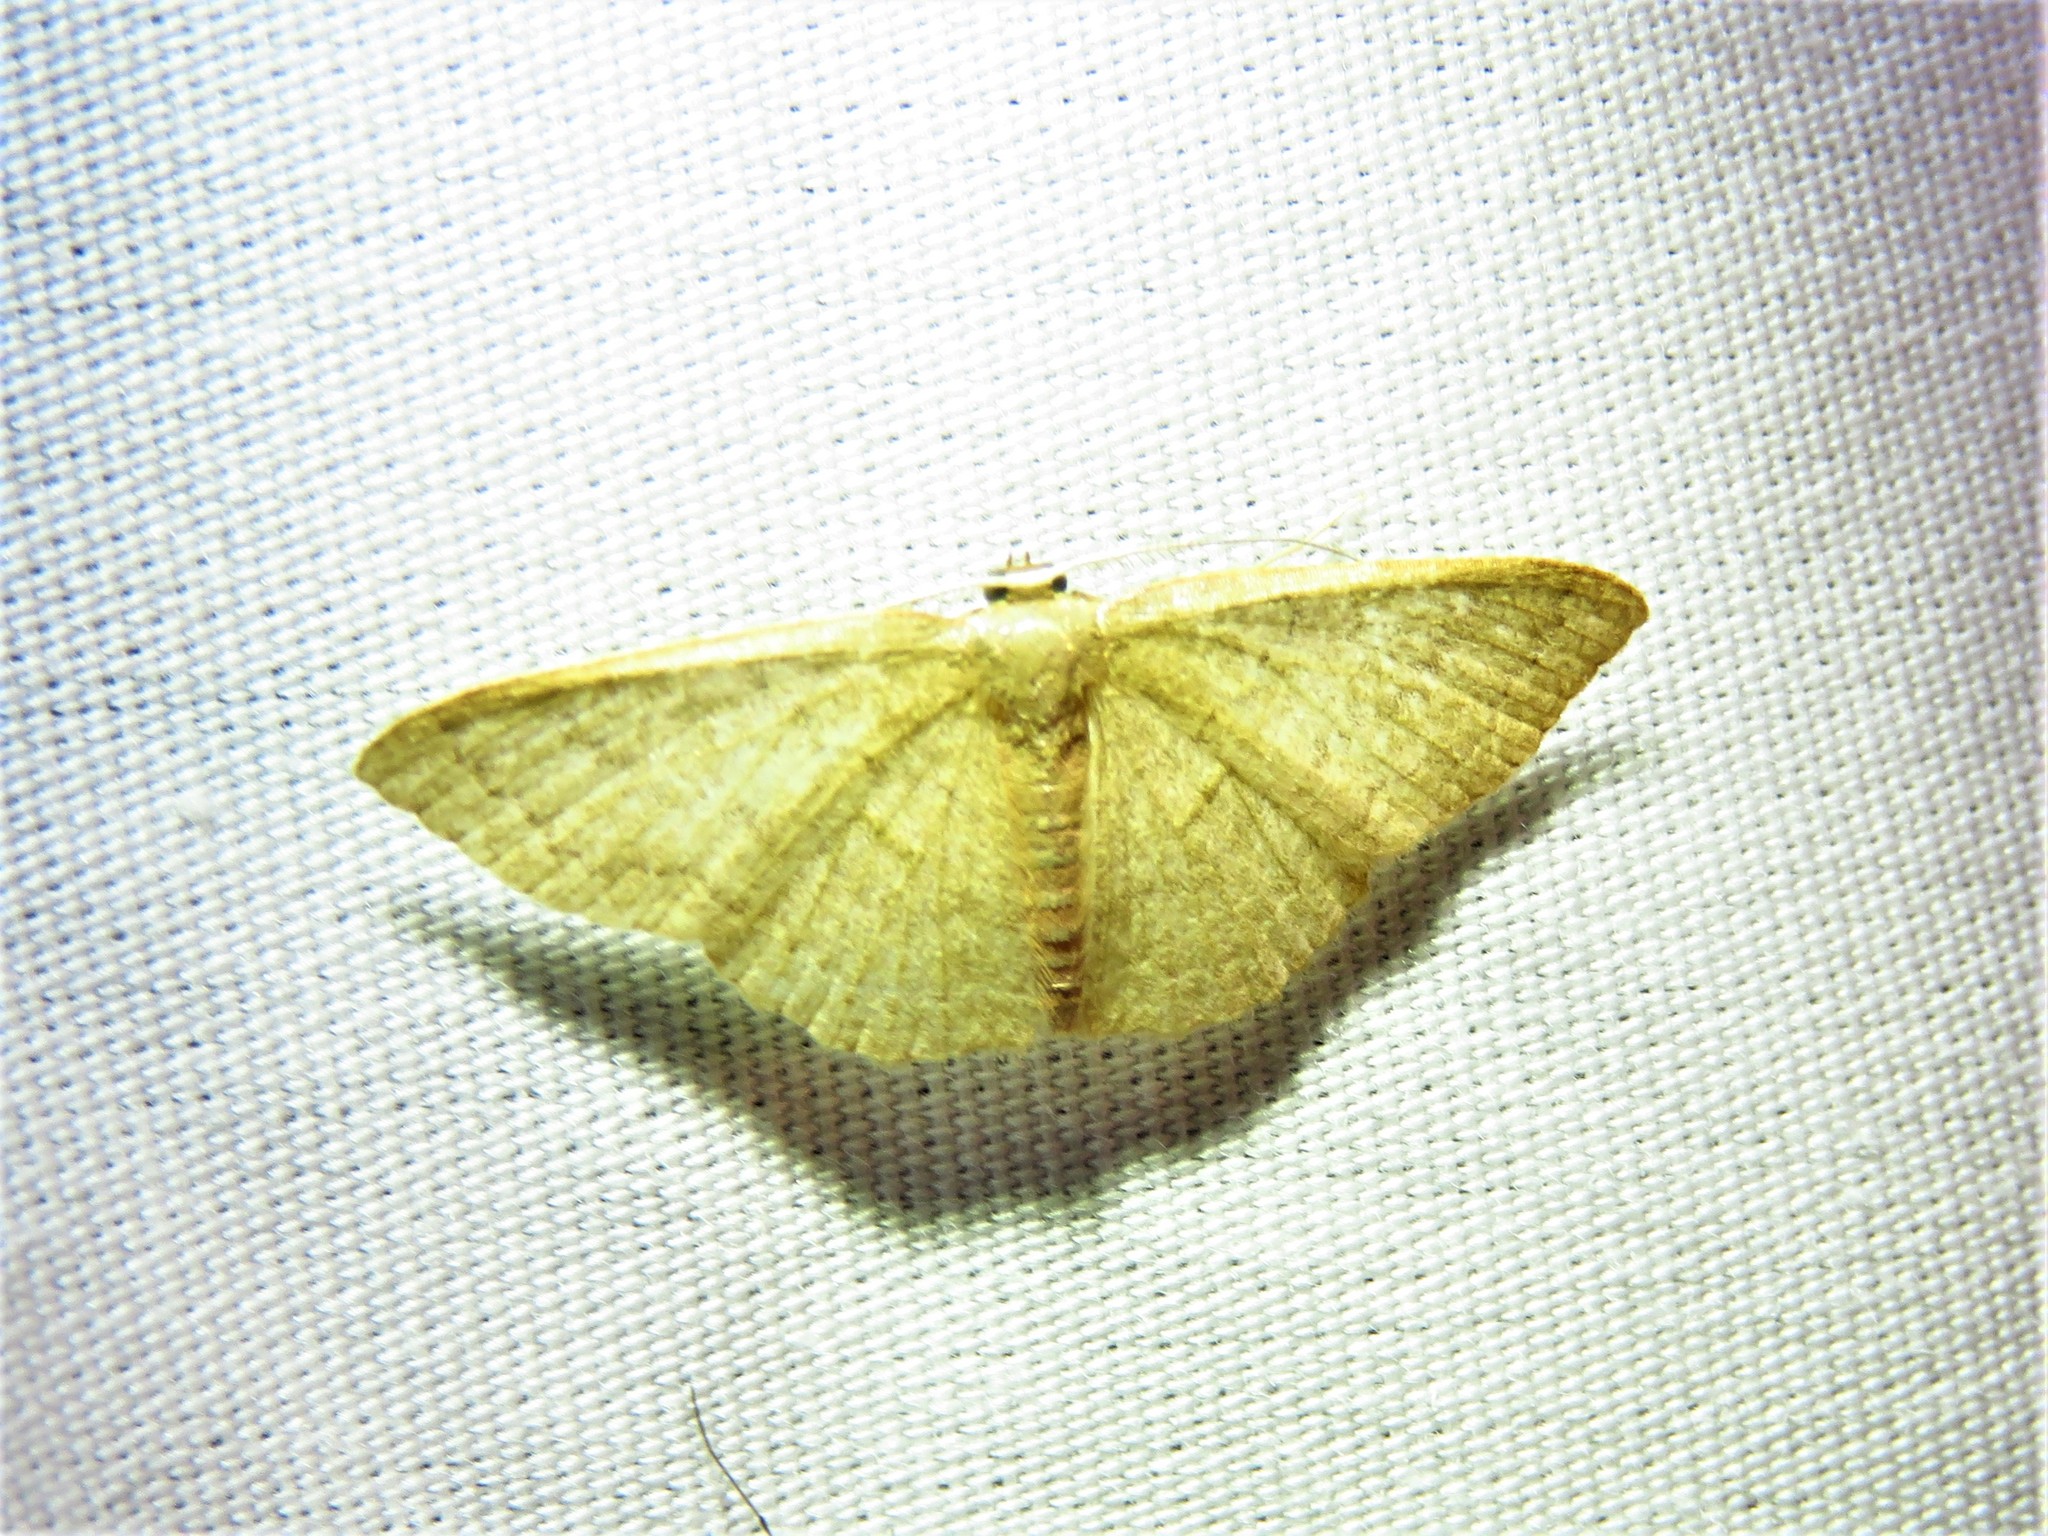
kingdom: Animalia
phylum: Arthropoda
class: Insecta
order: Lepidoptera
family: Geometridae
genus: Pleuroprucha
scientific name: Pleuroprucha insulsaria
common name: Common tan wave
